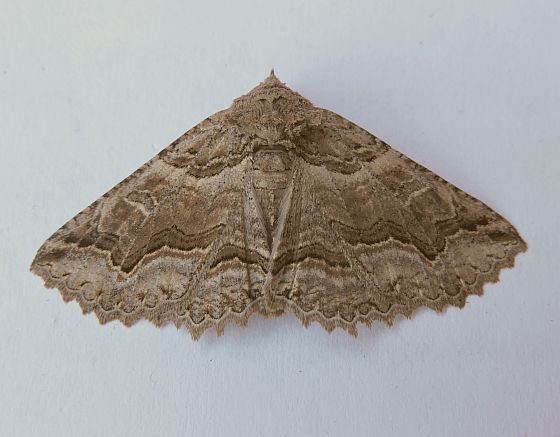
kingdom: Animalia
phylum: Arthropoda
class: Insecta
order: Lepidoptera
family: Erebidae
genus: Zale
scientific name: Zale rubiata
